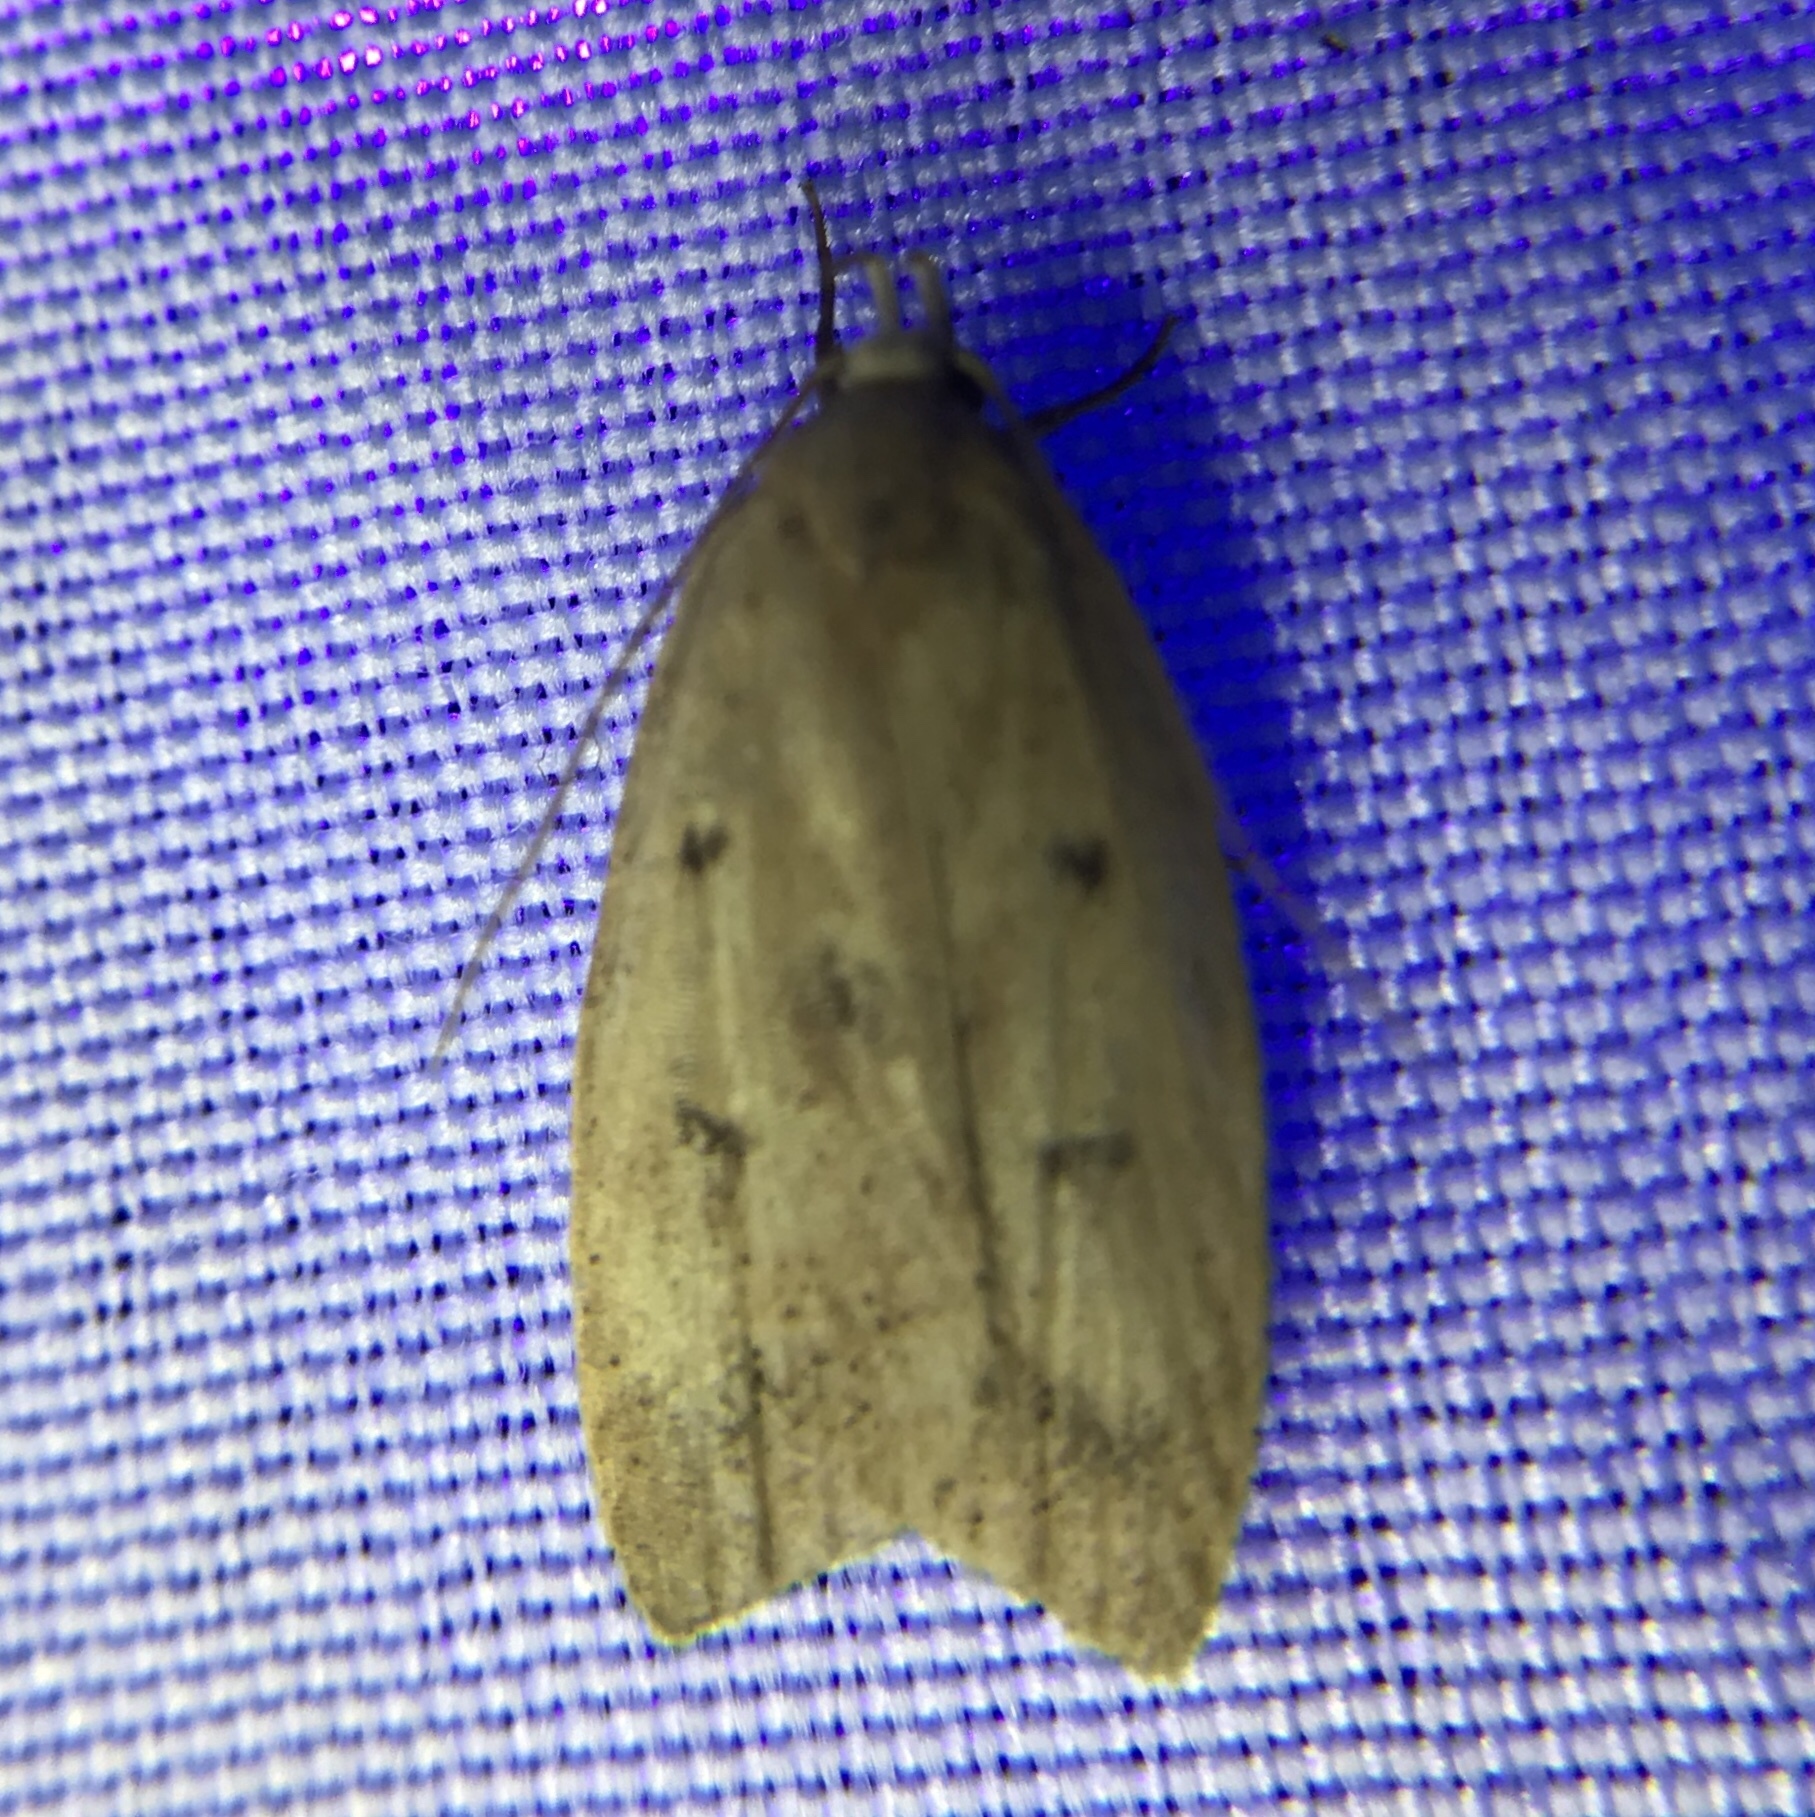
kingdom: Animalia
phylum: Arthropoda
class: Insecta
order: Lepidoptera
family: Peleopodidae
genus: Machimia
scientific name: Machimia tentoriferella
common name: Gold-striped leaftier moth
